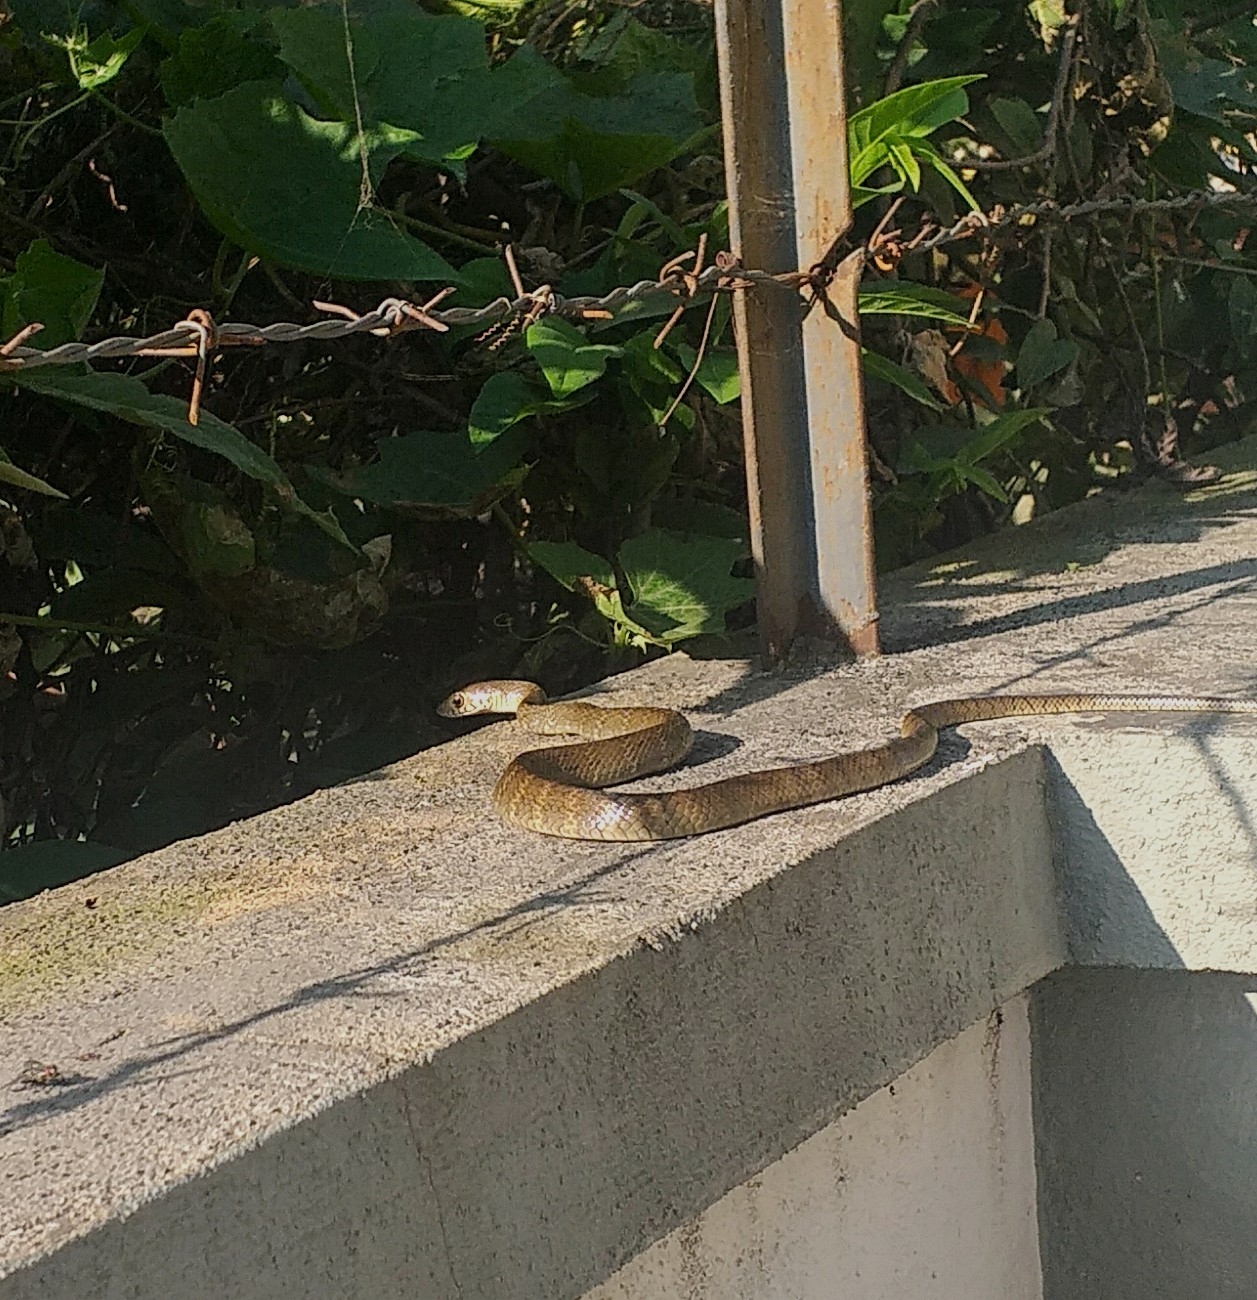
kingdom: Animalia
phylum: Chordata
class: Squamata
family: Colubridae
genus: Ptyas
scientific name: Ptyas mucosa
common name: Oriental ratsnake
